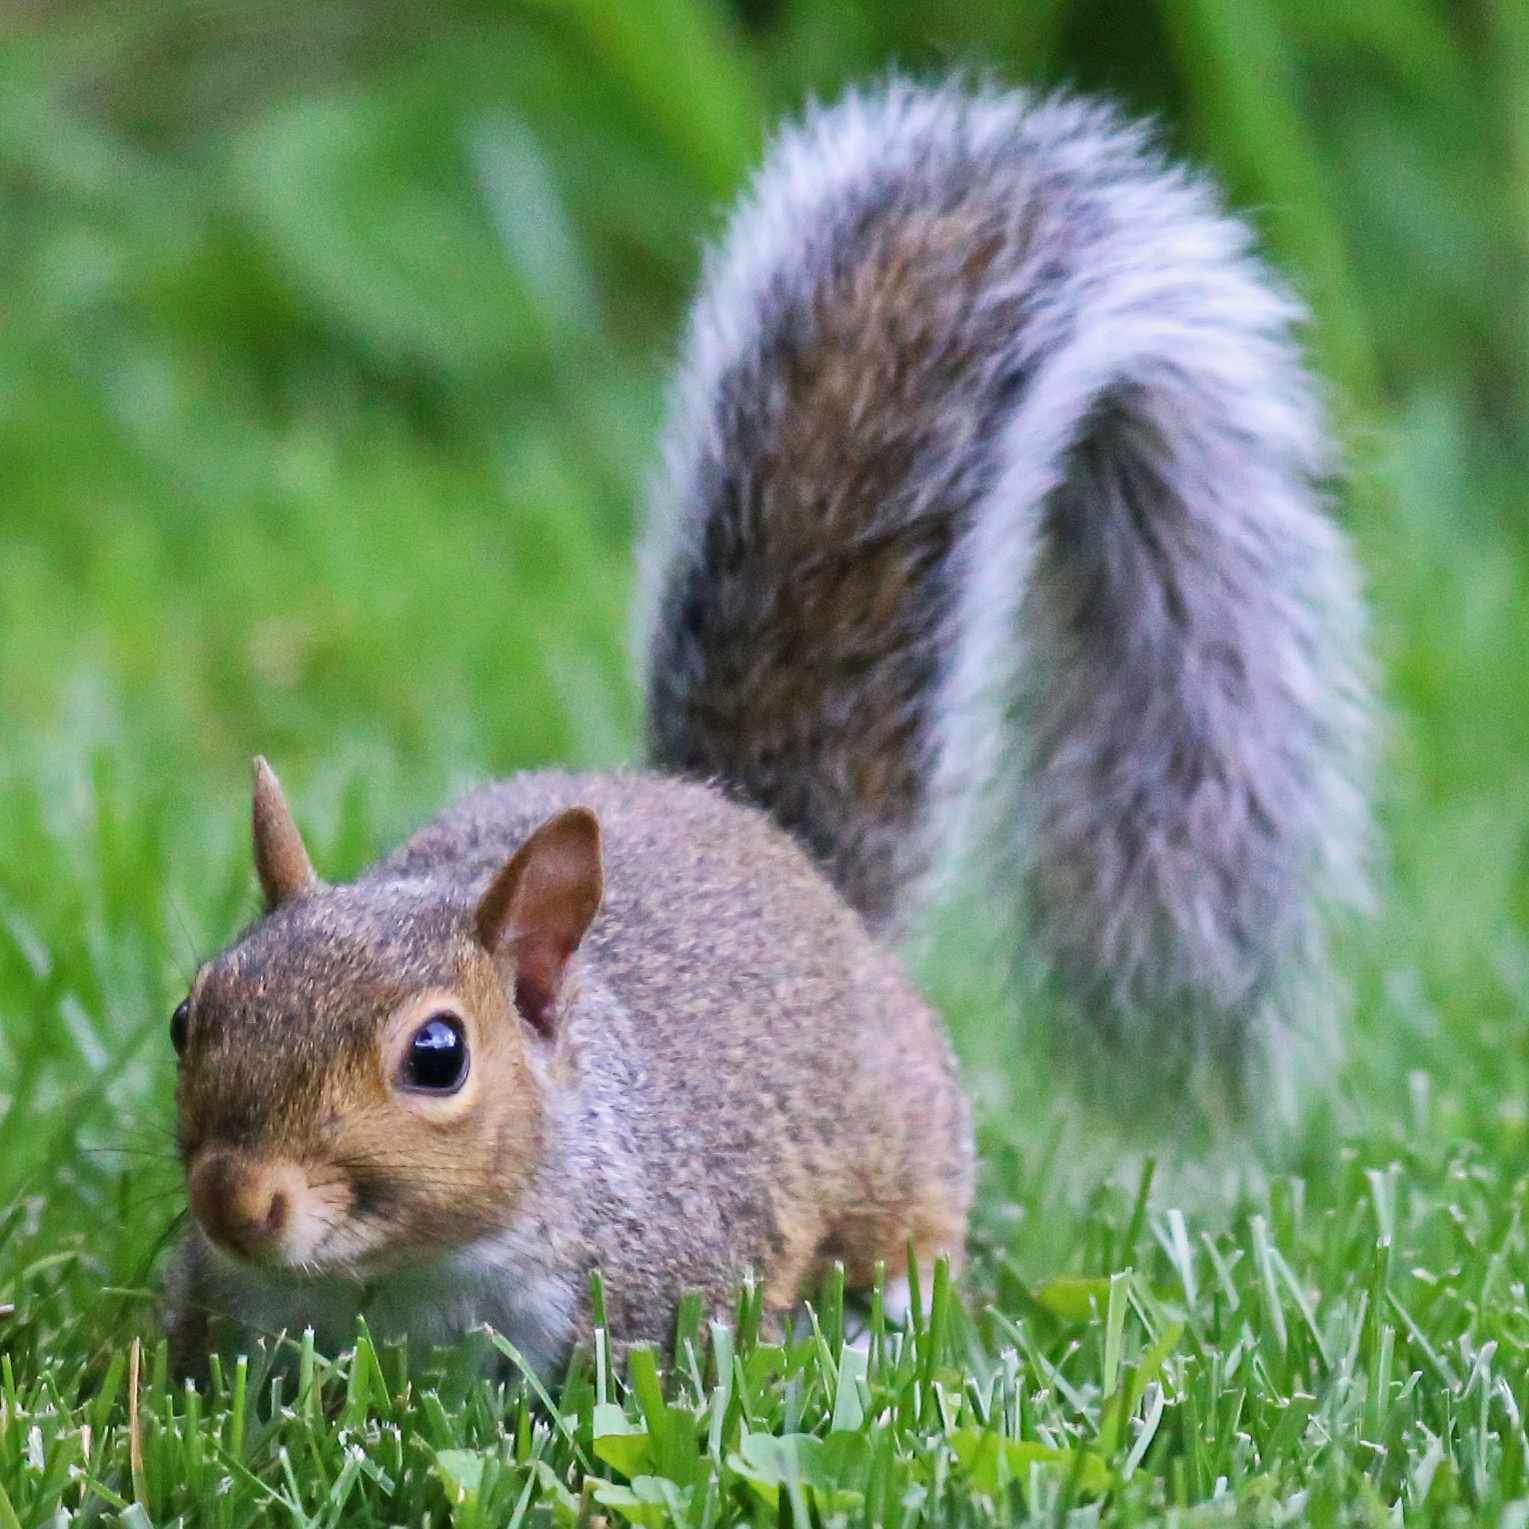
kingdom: Animalia
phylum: Chordata
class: Mammalia
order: Rodentia
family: Sciuridae
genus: Sciurus
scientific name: Sciurus carolinensis
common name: Eastern gray squirrel
